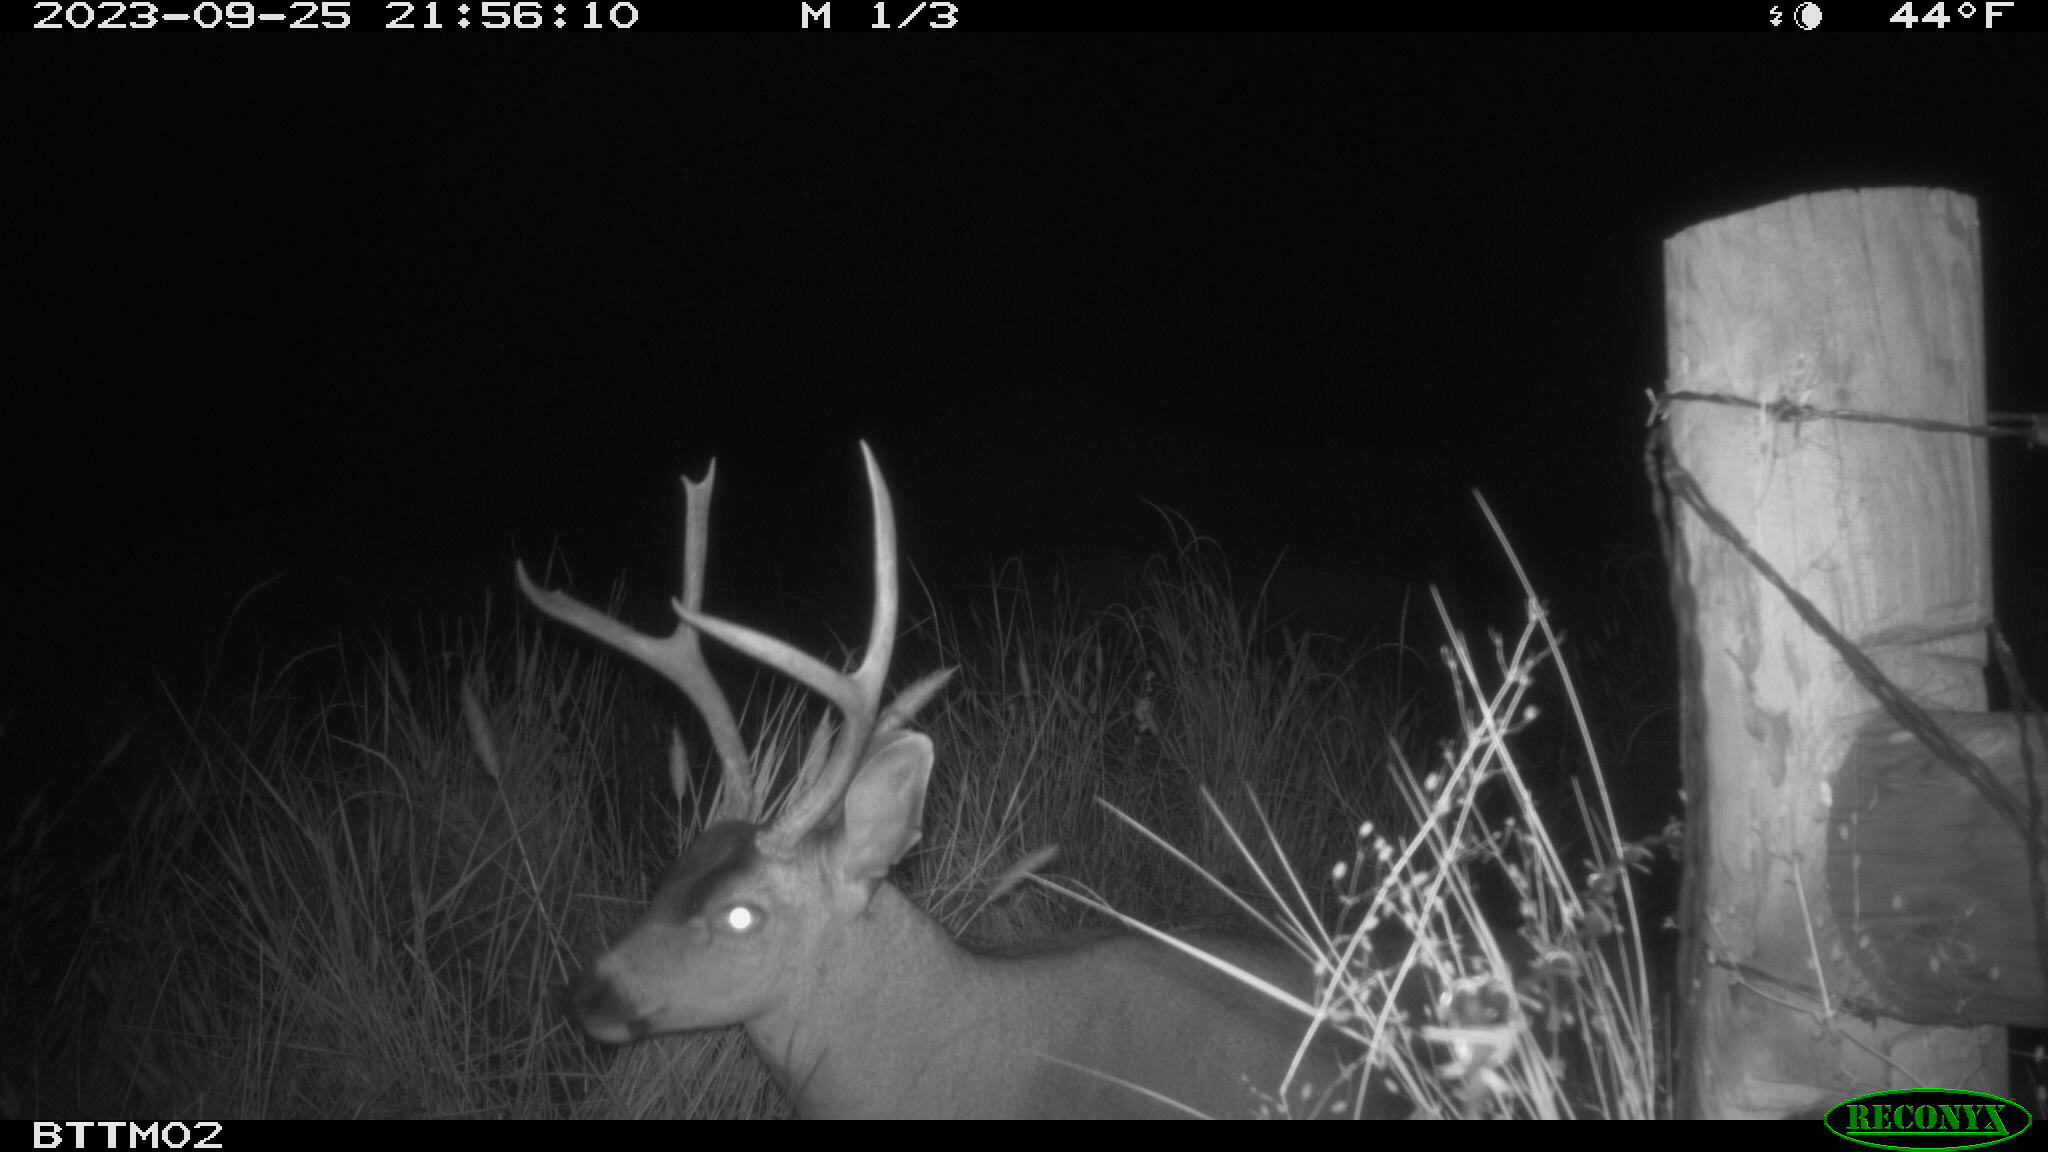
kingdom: Animalia
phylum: Chordata
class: Mammalia
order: Artiodactyla
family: Cervidae
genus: Odocoileus
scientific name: Odocoileus hemionus
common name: Mule deer
